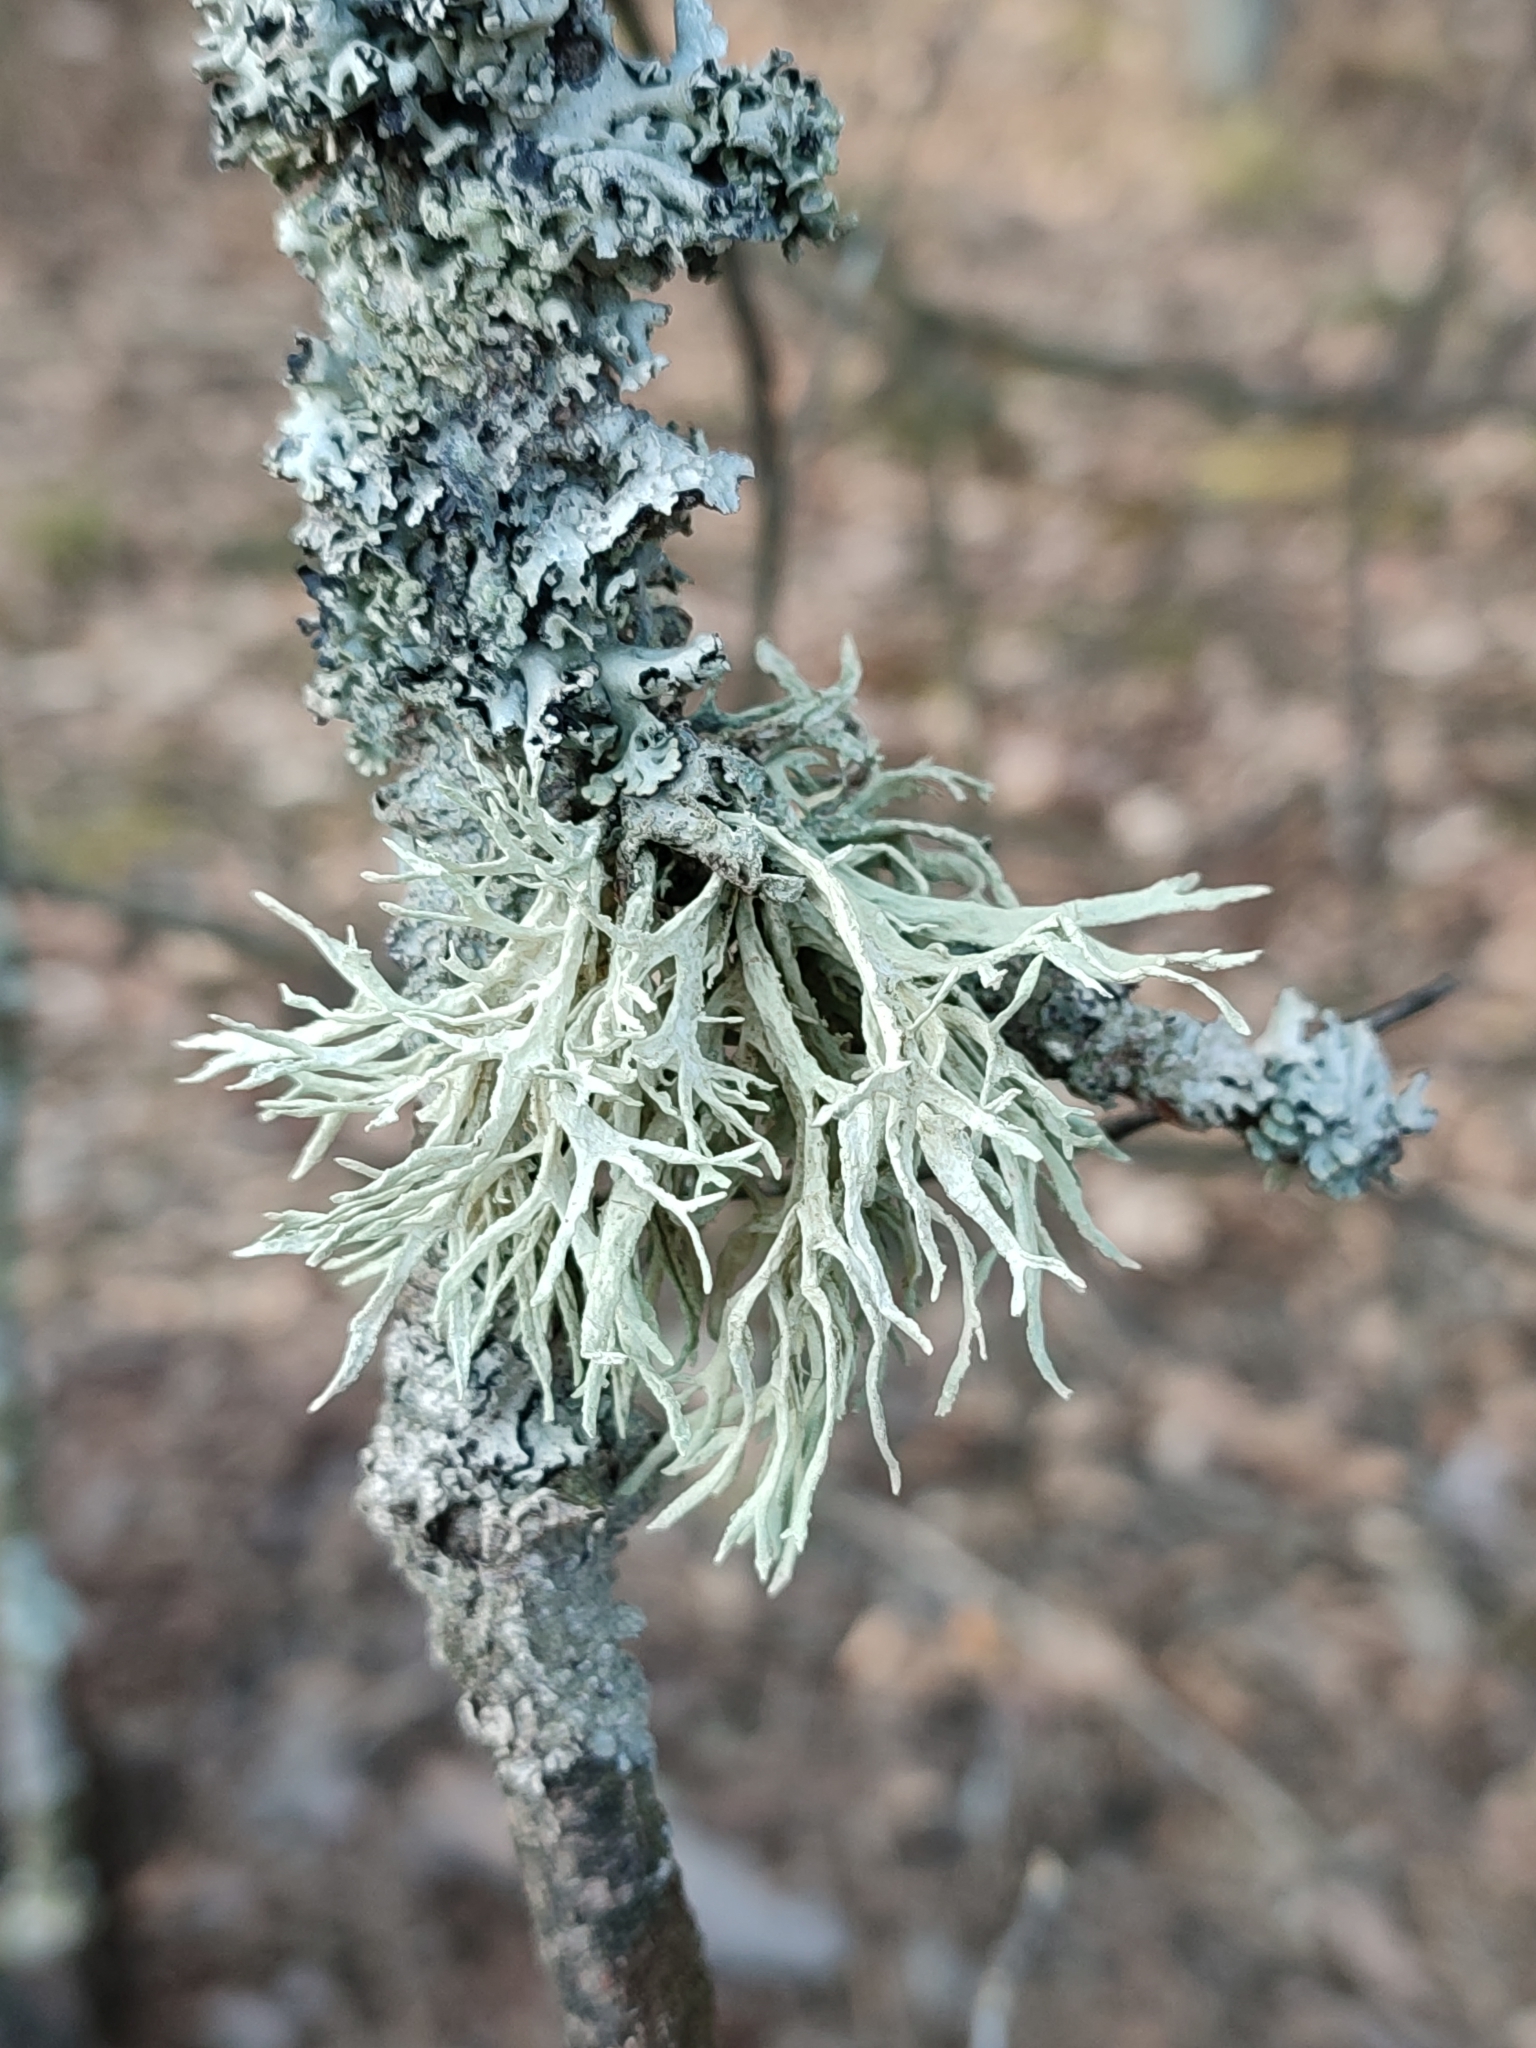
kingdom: Fungi
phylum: Ascomycota
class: Lecanoromycetes
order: Lecanorales
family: Parmeliaceae
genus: Evernia
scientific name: Evernia prunastri
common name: Oak moss
